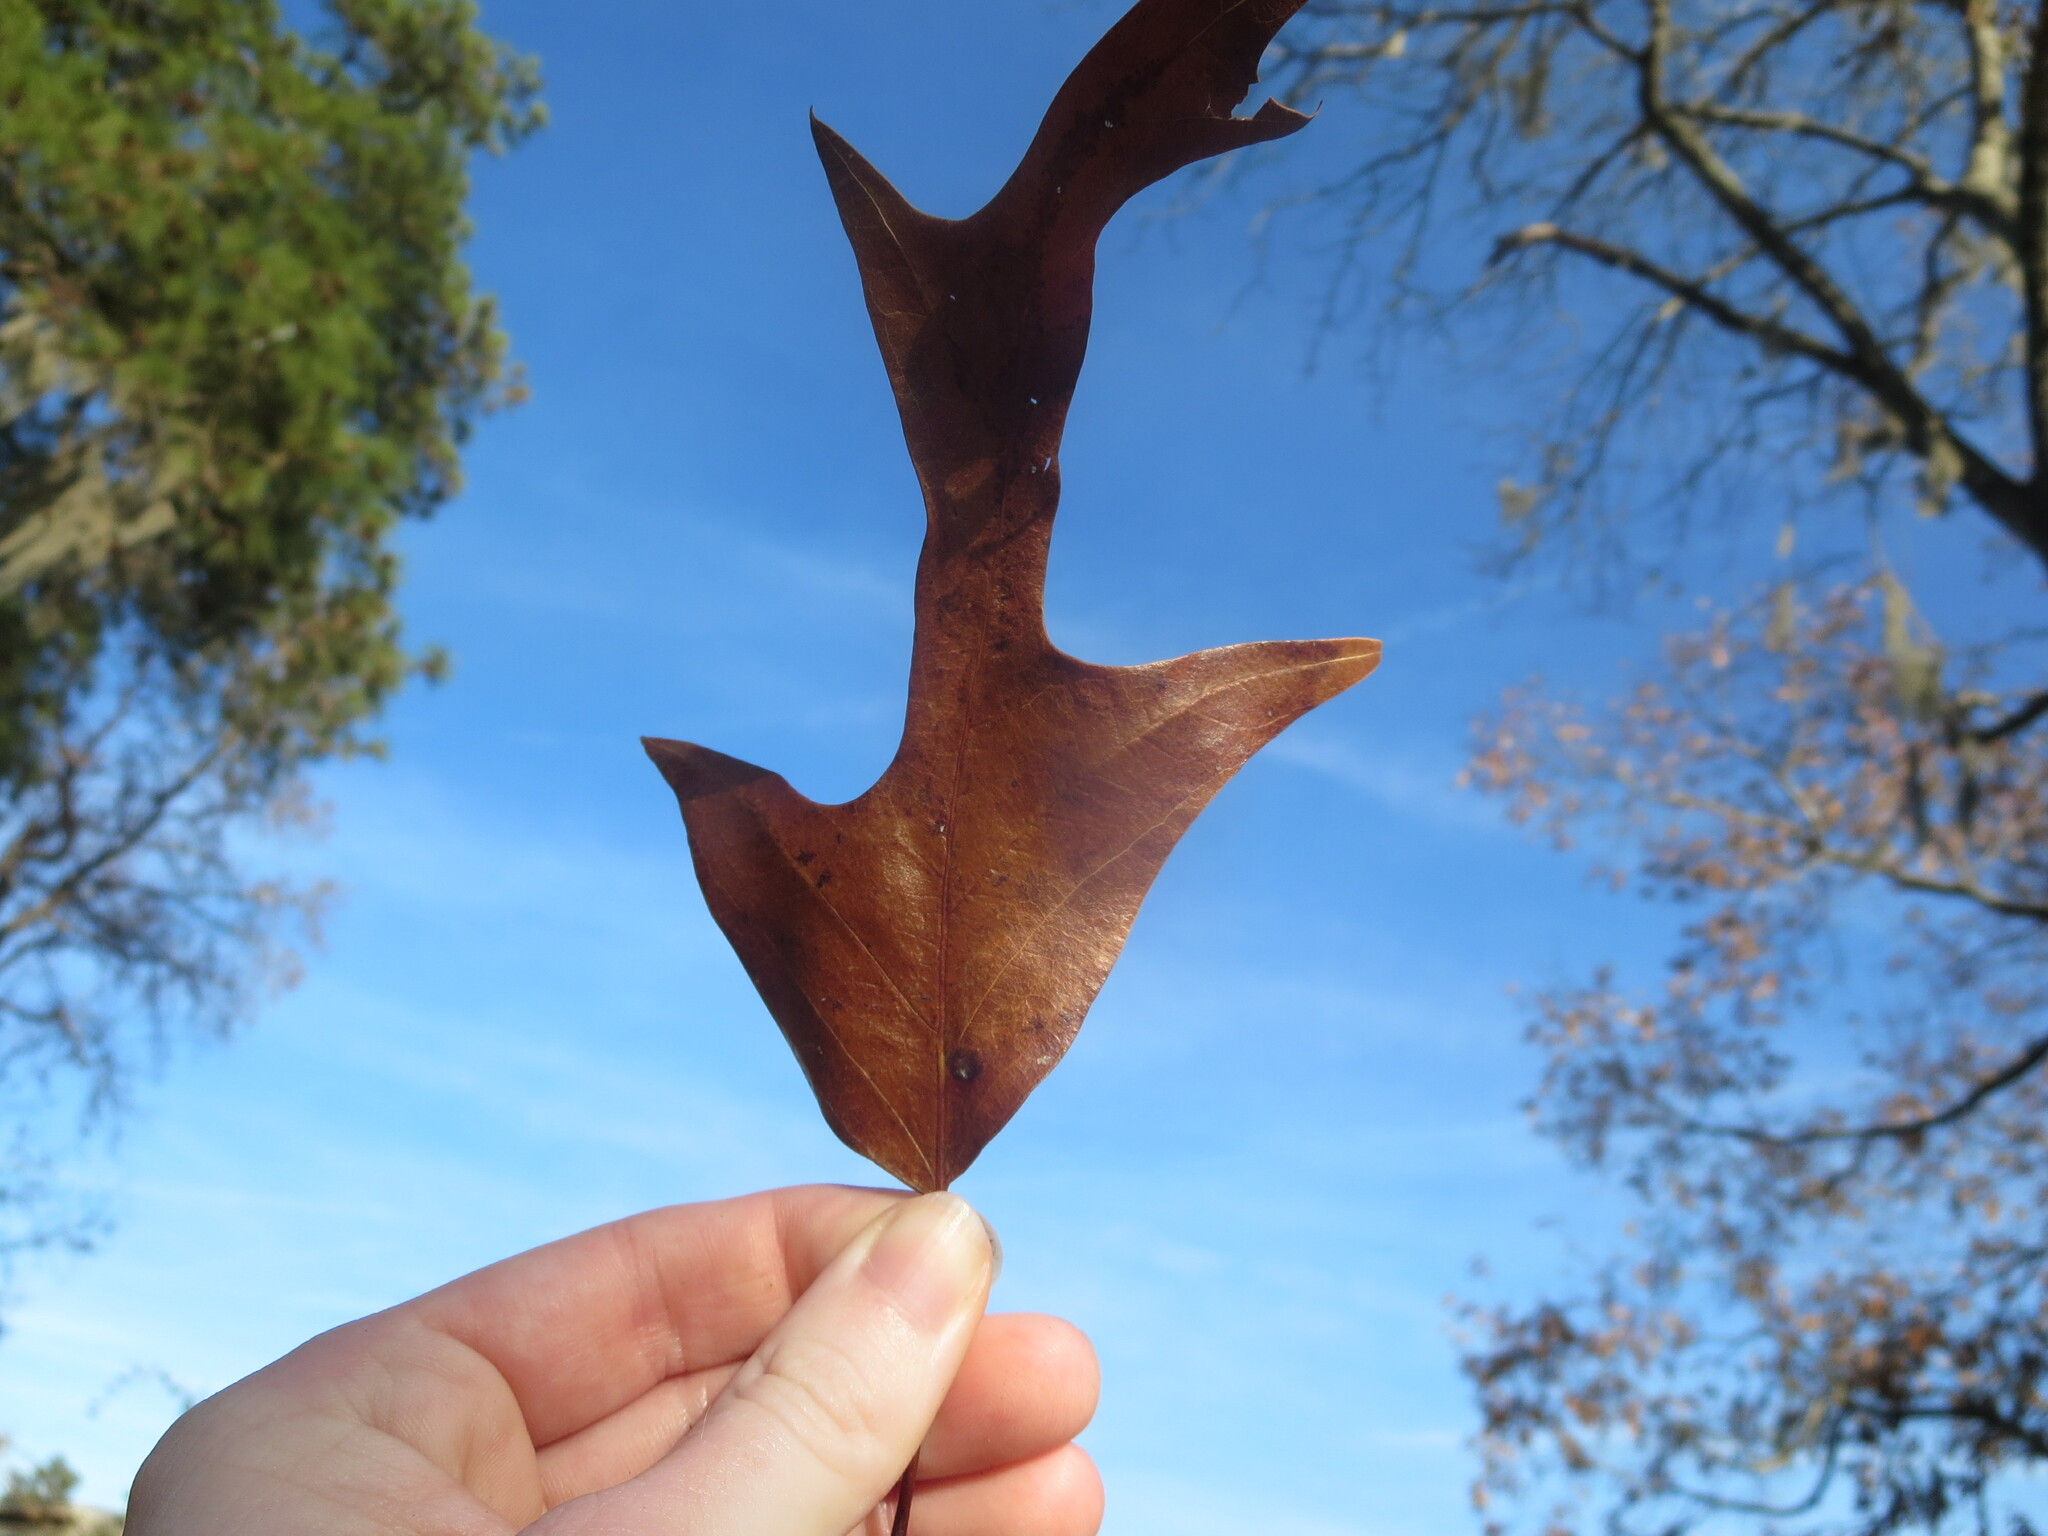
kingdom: Plantae
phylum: Tracheophyta
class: Magnoliopsida
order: Fagales
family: Fagaceae
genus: Quercus
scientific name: Quercus falcata
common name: Southern red oak
